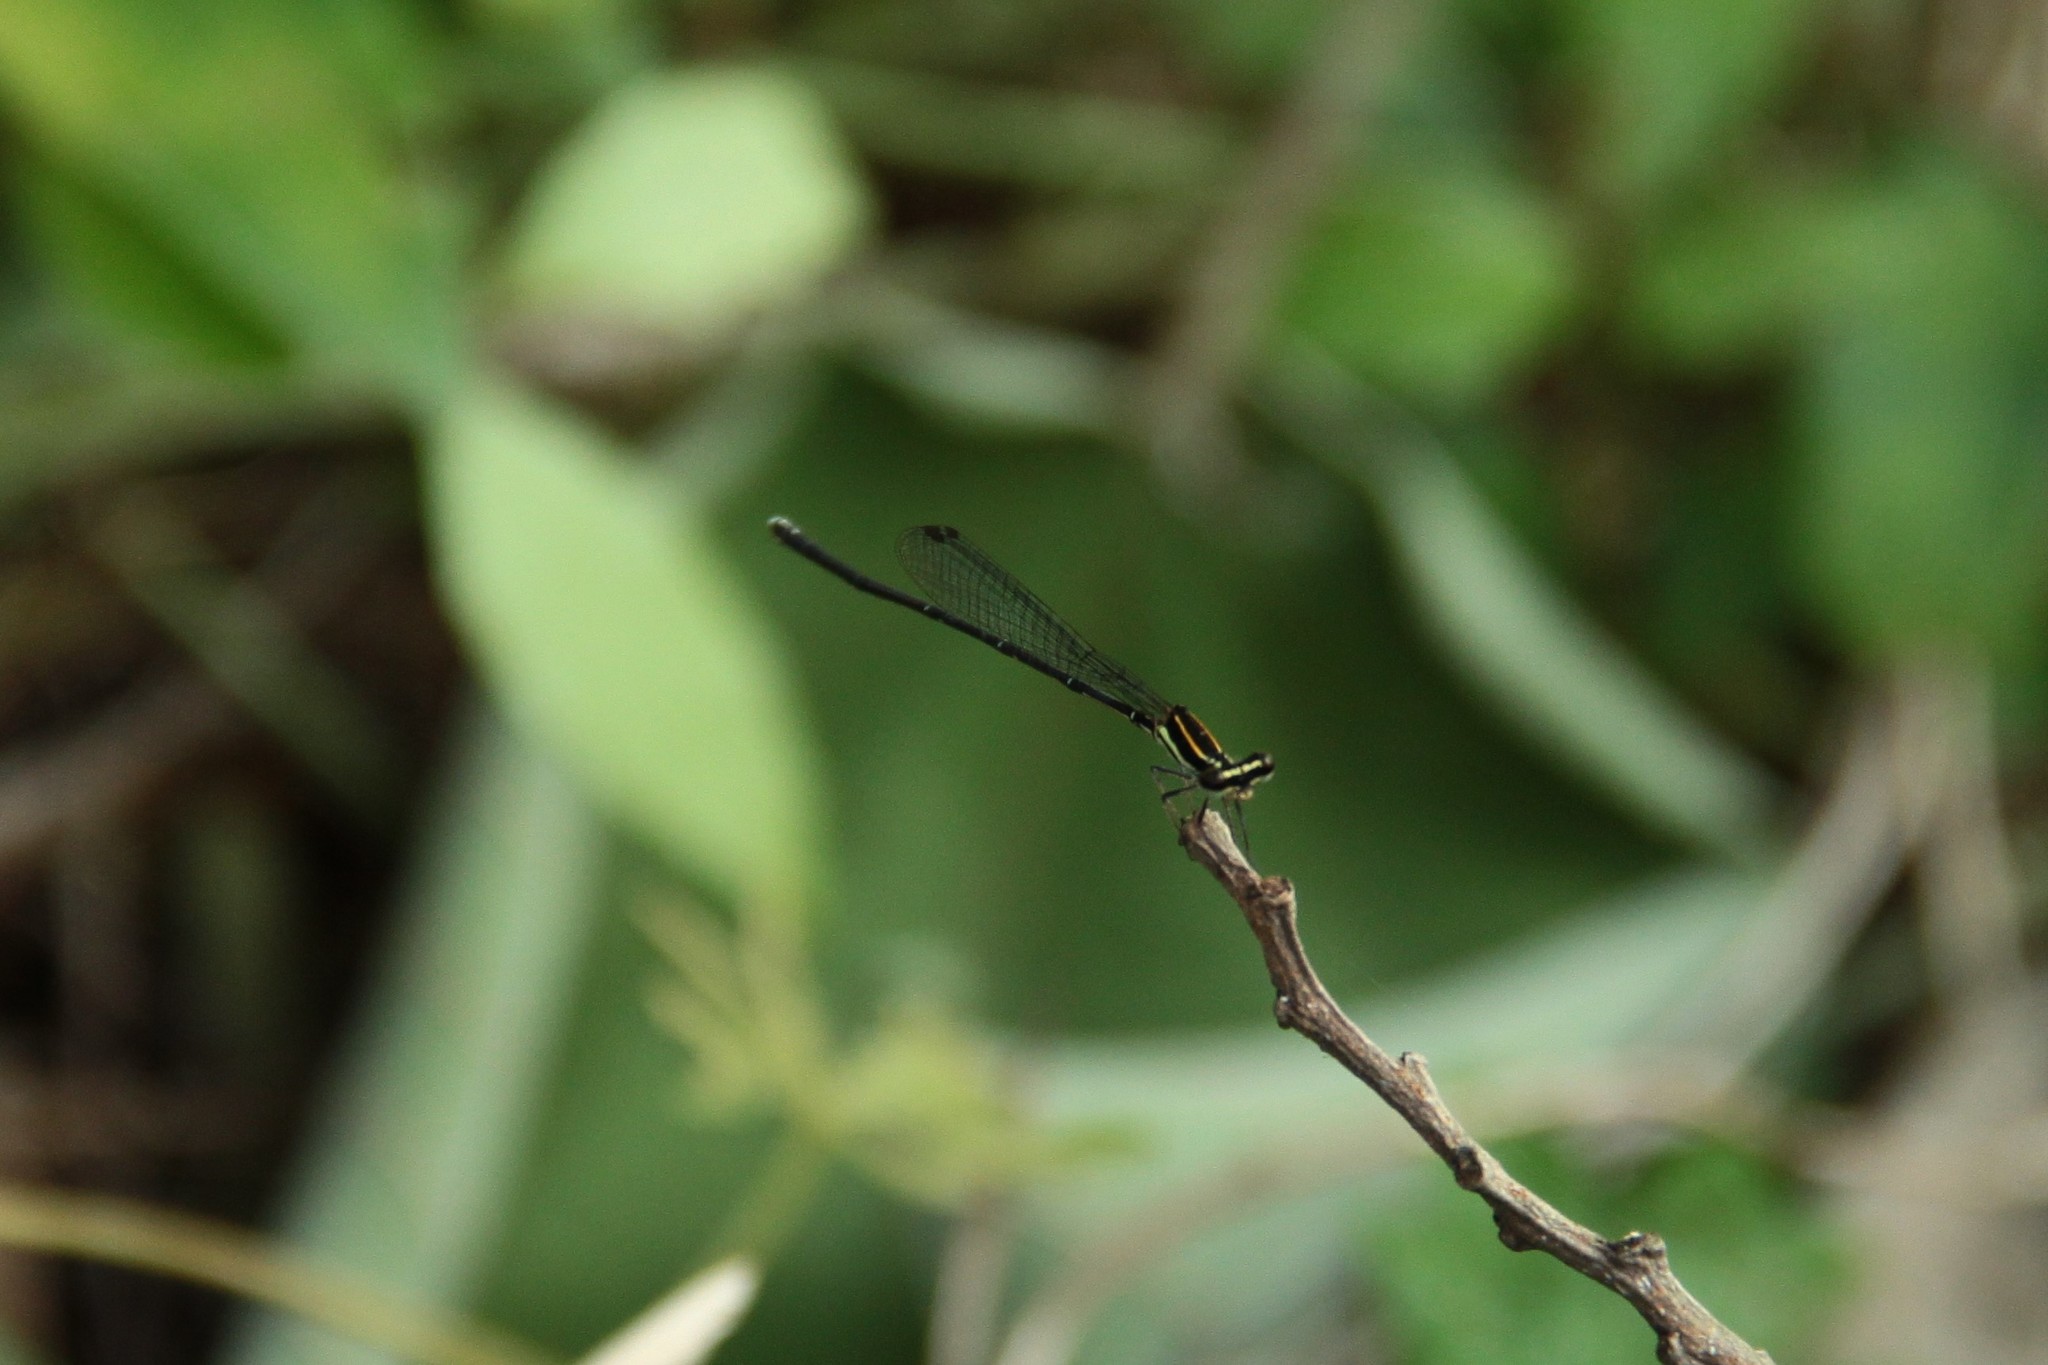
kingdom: Animalia
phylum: Arthropoda
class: Insecta
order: Odonata
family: Platycnemididae
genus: Prodasineura
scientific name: Prodasineura croconota
